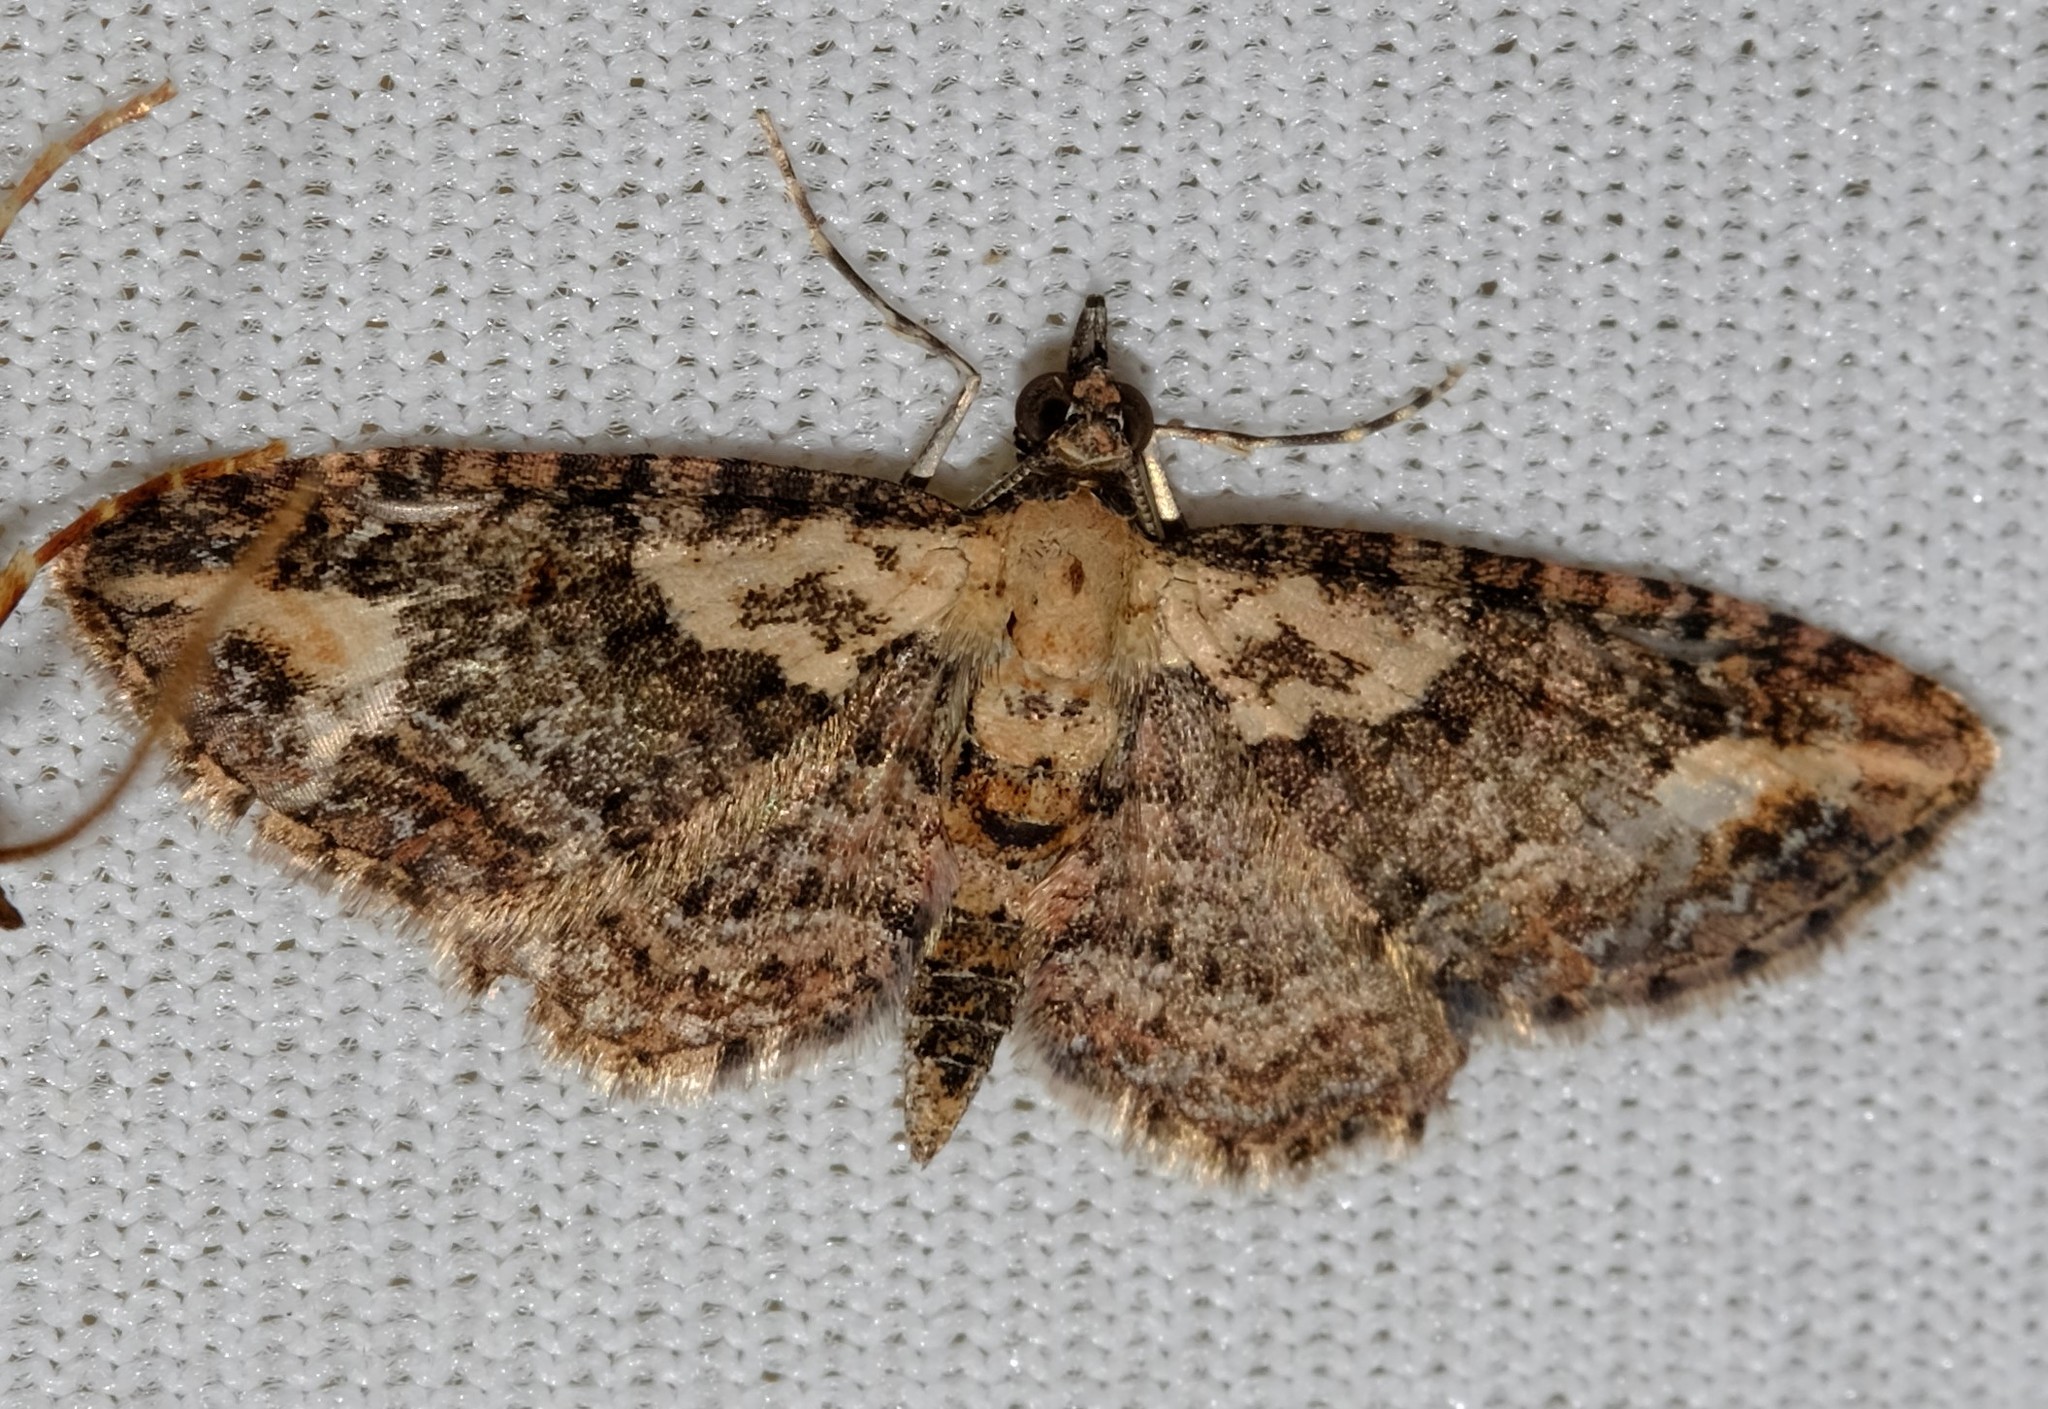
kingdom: Animalia
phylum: Arthropoda
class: Insecta
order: Lepidoptera
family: Geometridae
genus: Pasiphilodes
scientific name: Pasiphilodes testulata
